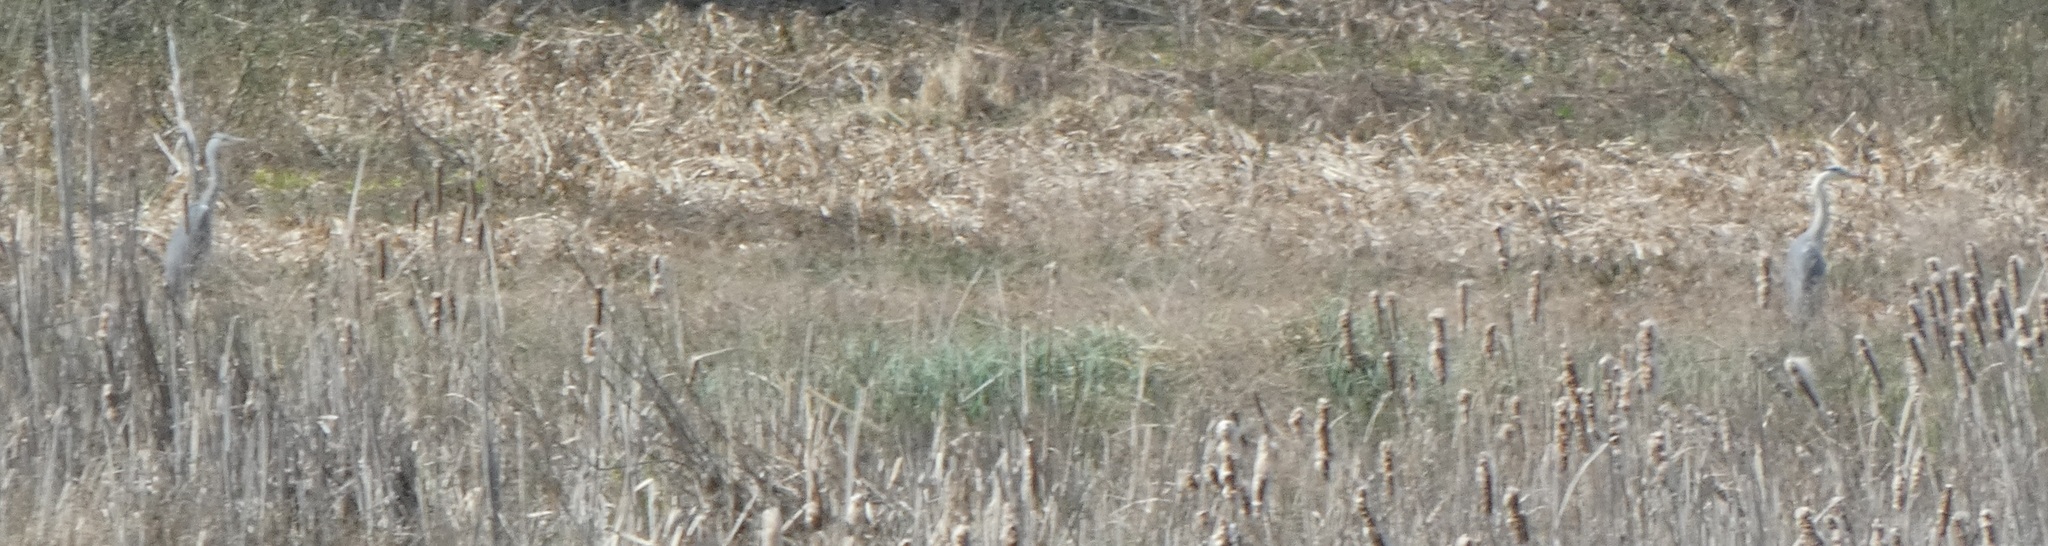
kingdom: Animalia
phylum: Chordata
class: Aves
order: Pelecaniformes
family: Ardeidae
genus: Ardea
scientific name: Ardea cinerea
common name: Grey heron
